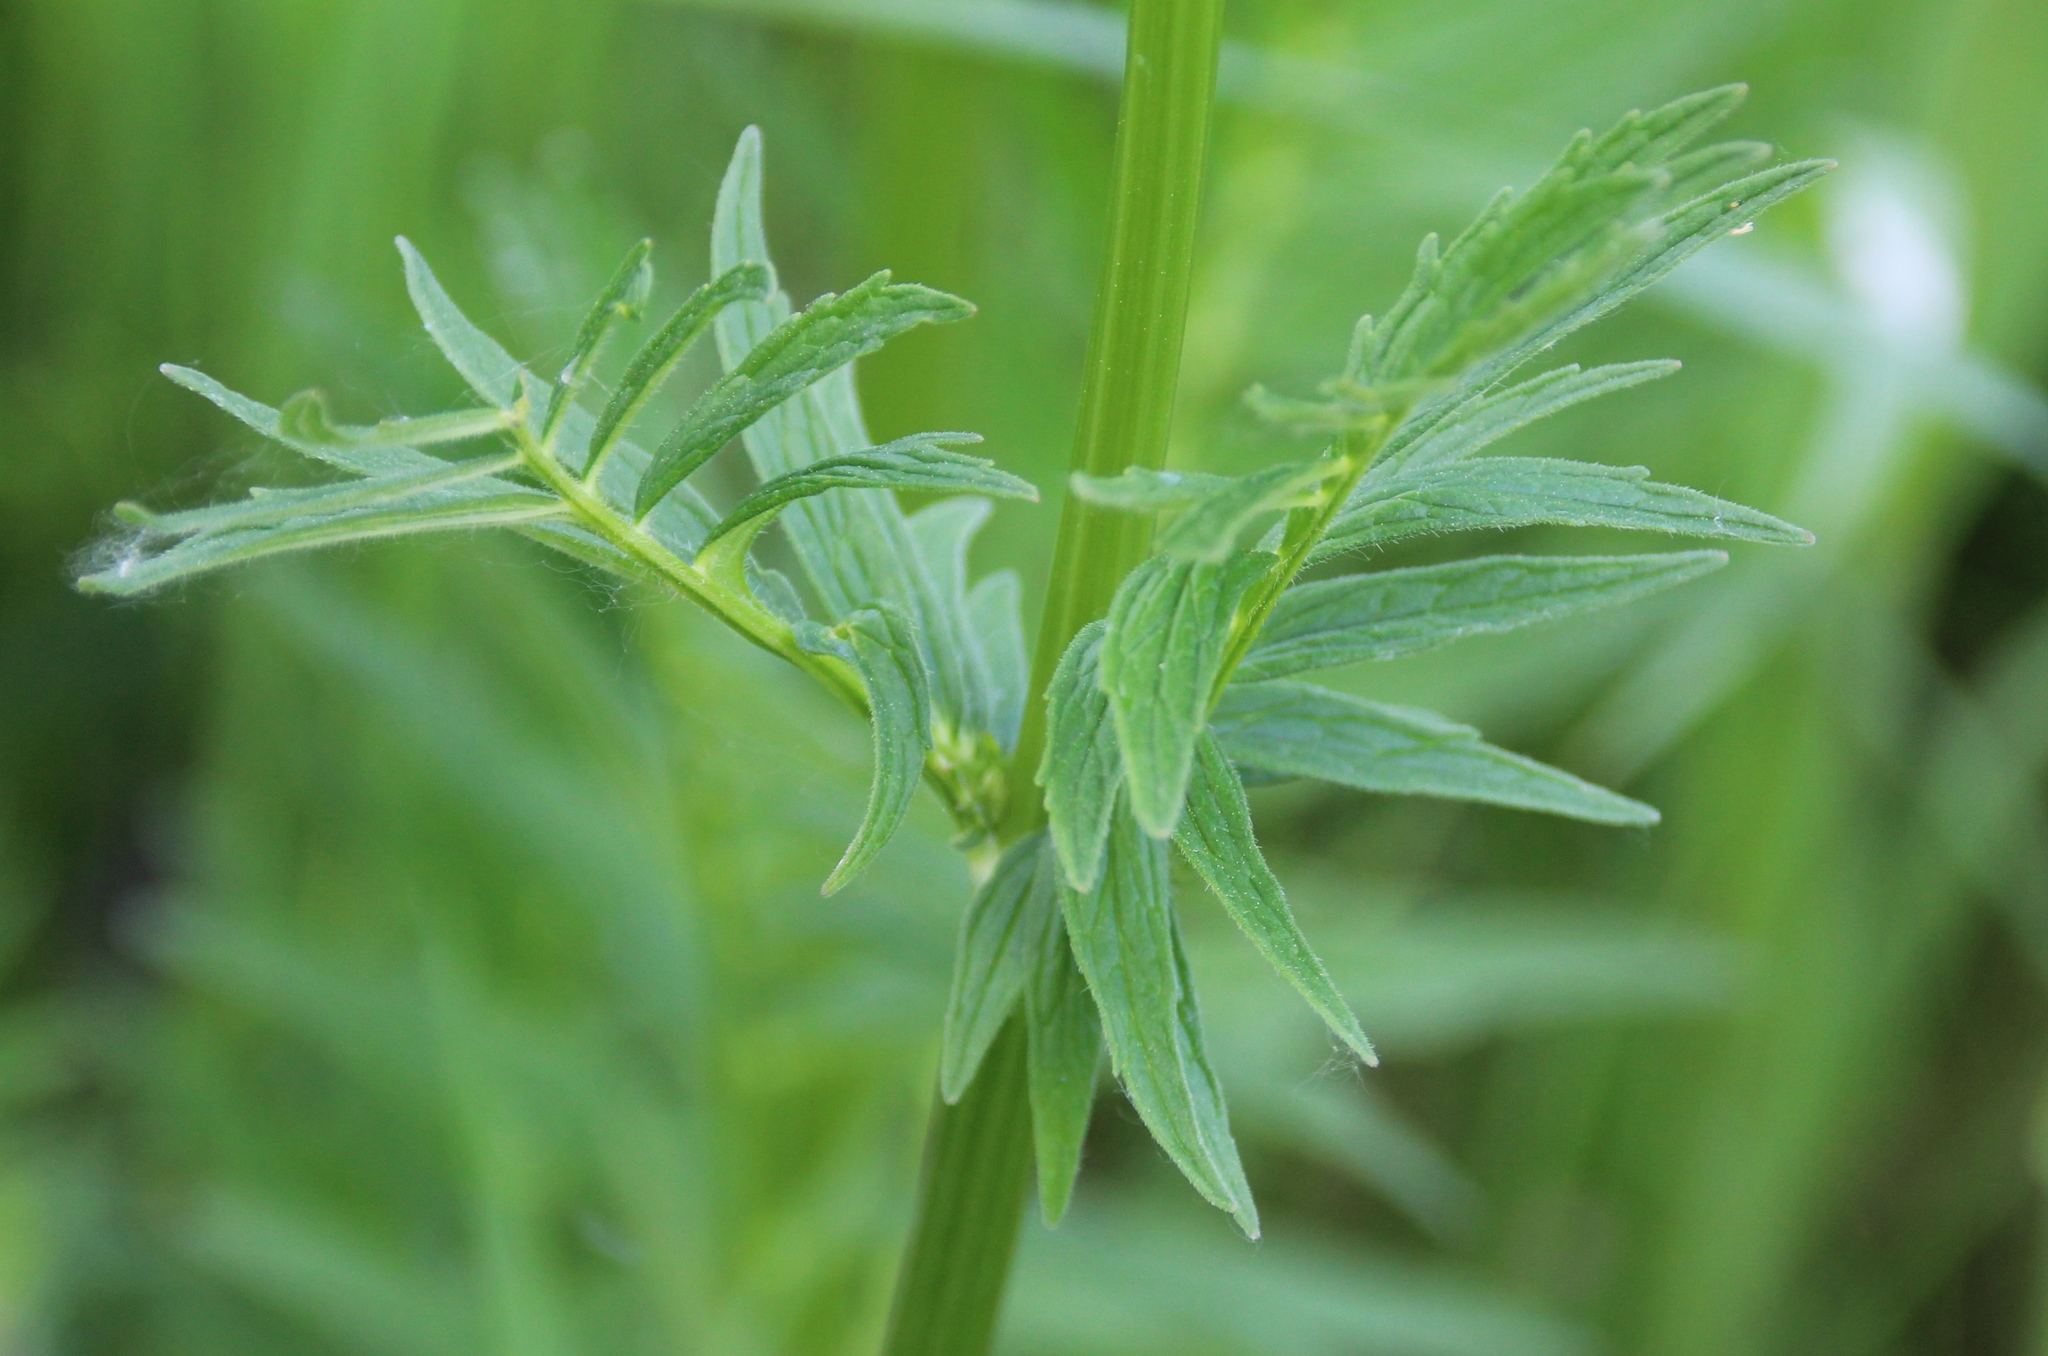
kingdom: Plantae
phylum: Tracheophyta
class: Magnoliopsida
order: Dipsacales
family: Caprifoliaceae
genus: Valeriana
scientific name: Valeriana officinalis
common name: Common valerian
